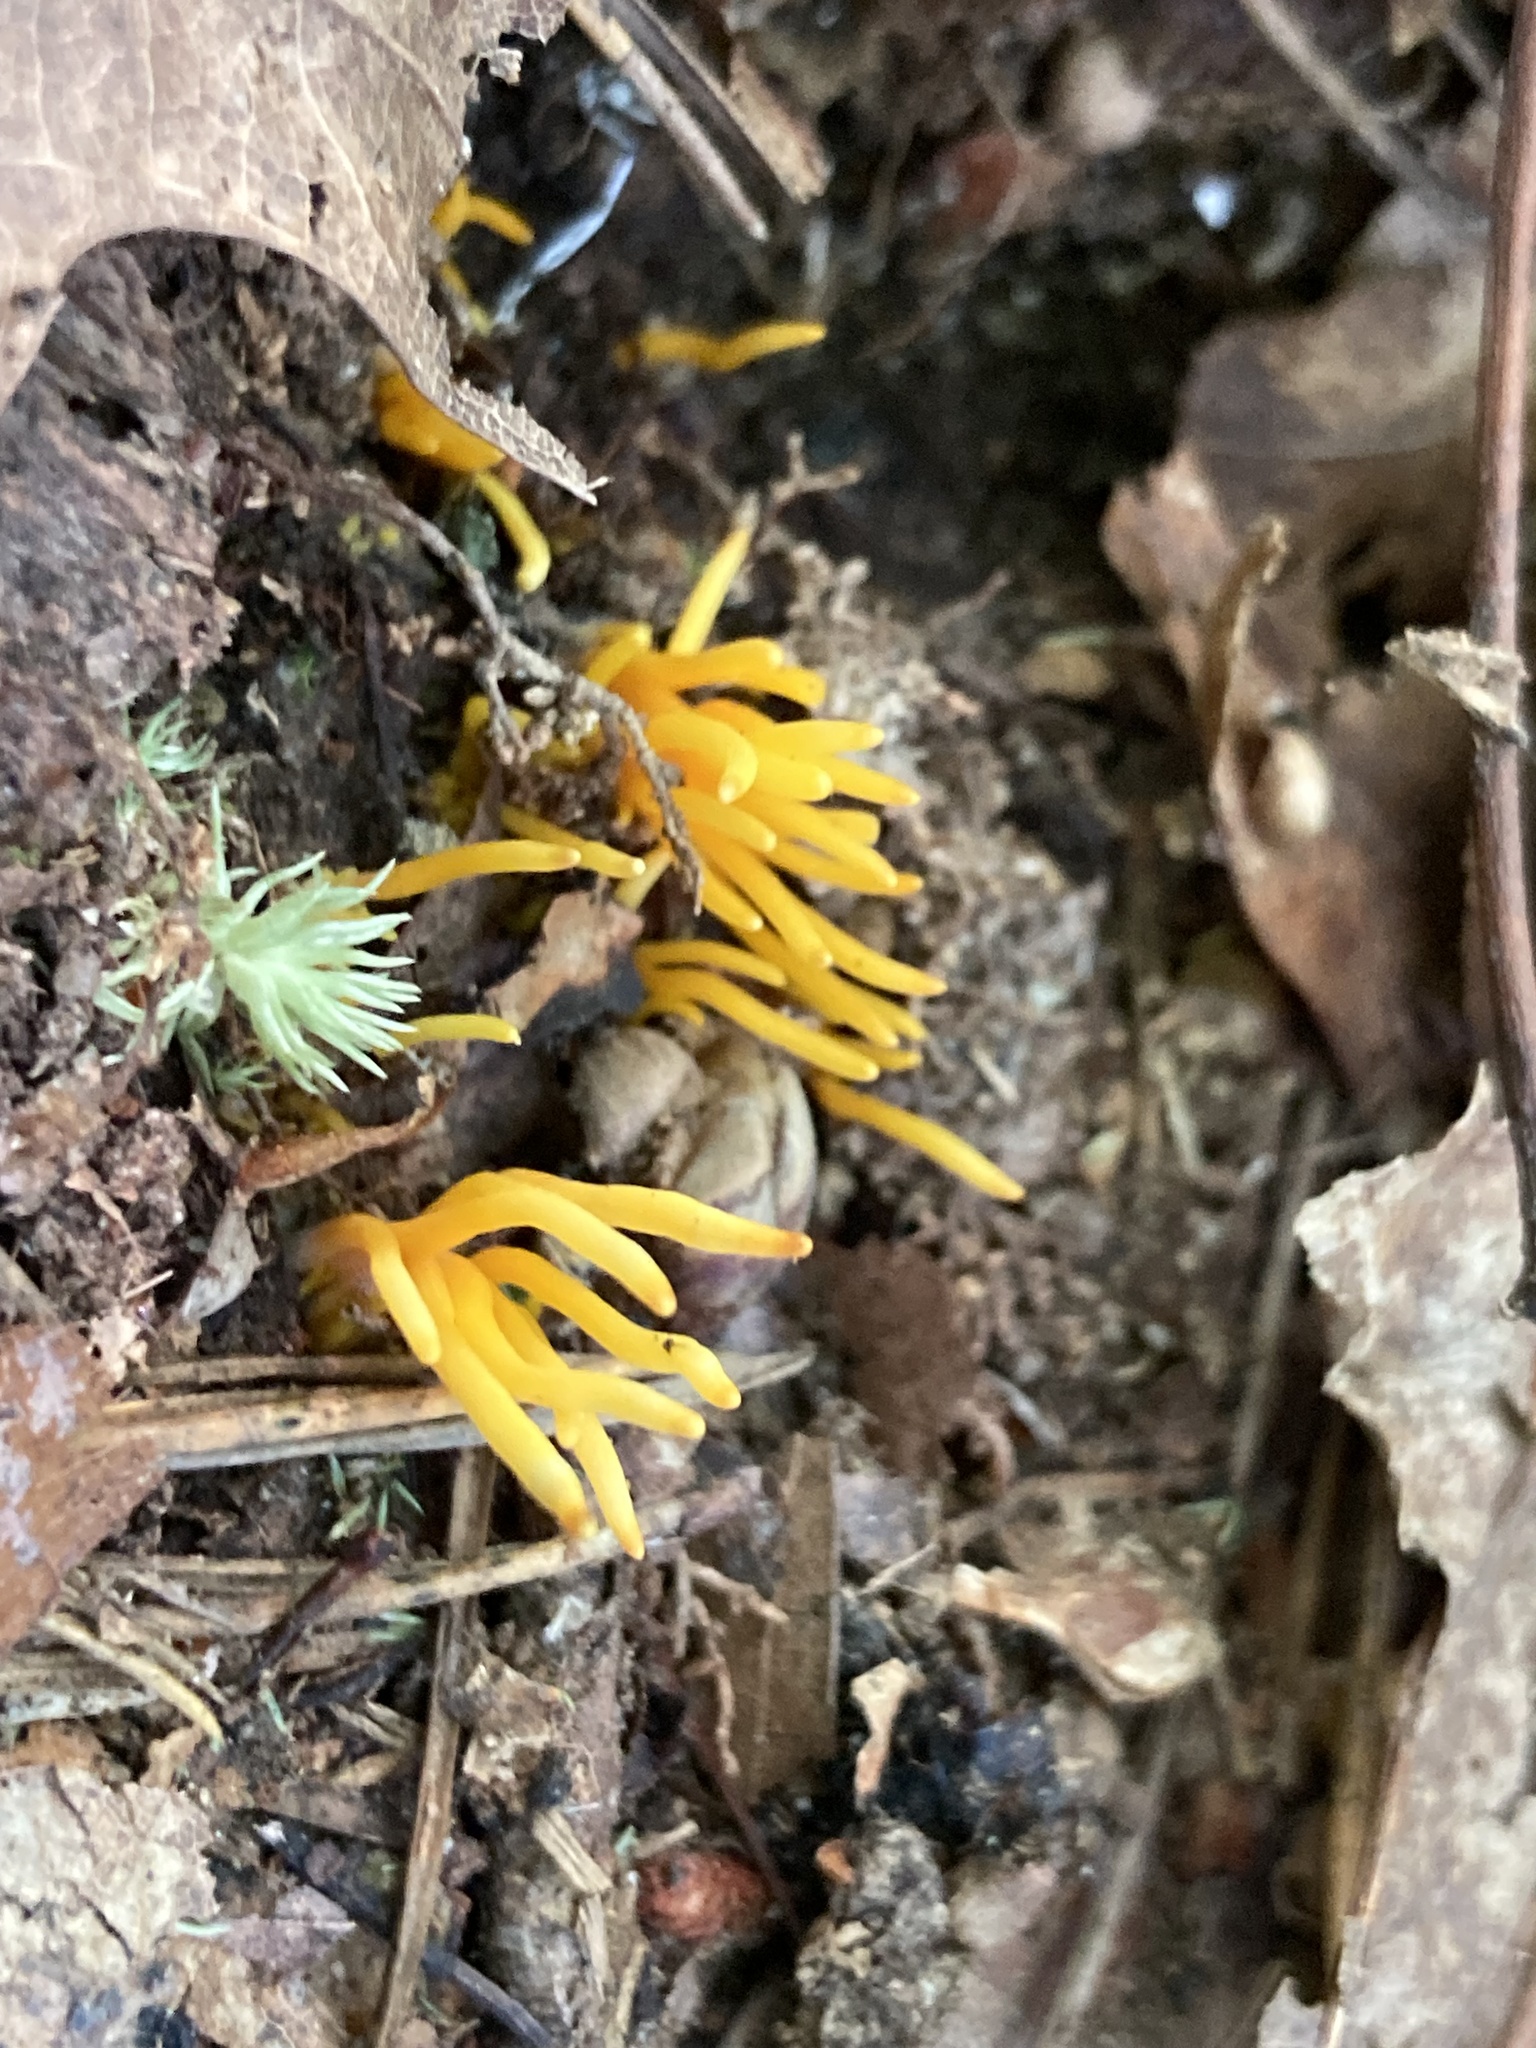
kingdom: Fungi
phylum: Basidiomycota
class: Agaricomycetes
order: Agaricales
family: Clavariaceae
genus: Clavulinopsis
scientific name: Clavulinopsis fusiformis
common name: Golden spindles
